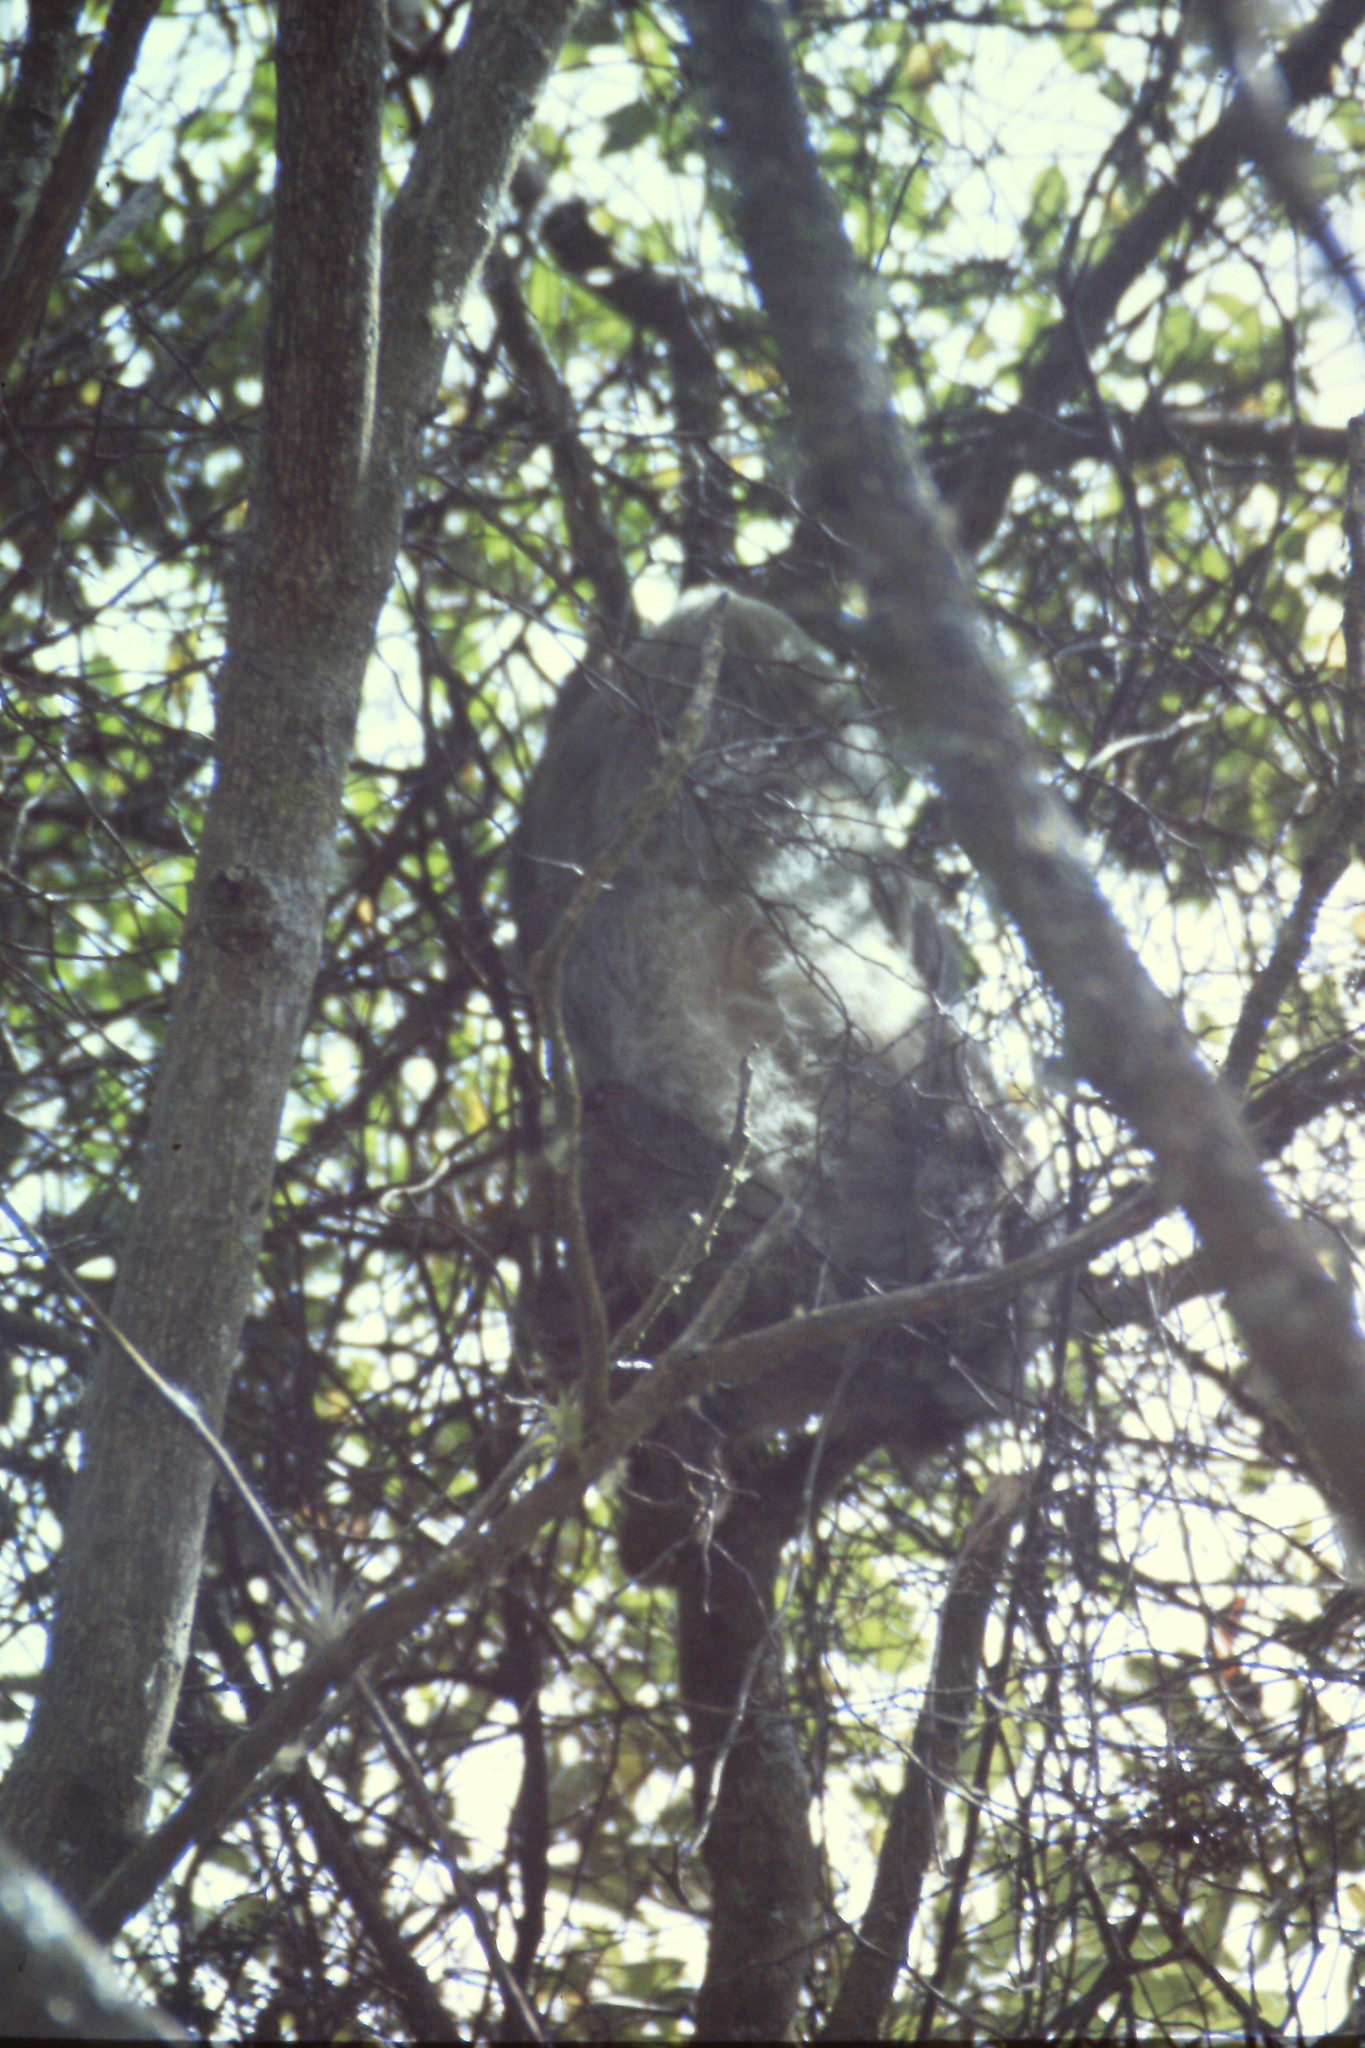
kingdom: Animalia
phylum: Chordata
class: Mammalia
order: Pilosa
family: Bradypodidae
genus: Bradypus
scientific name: Bradypus variegatus
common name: Brown-throated three-toed sloth
